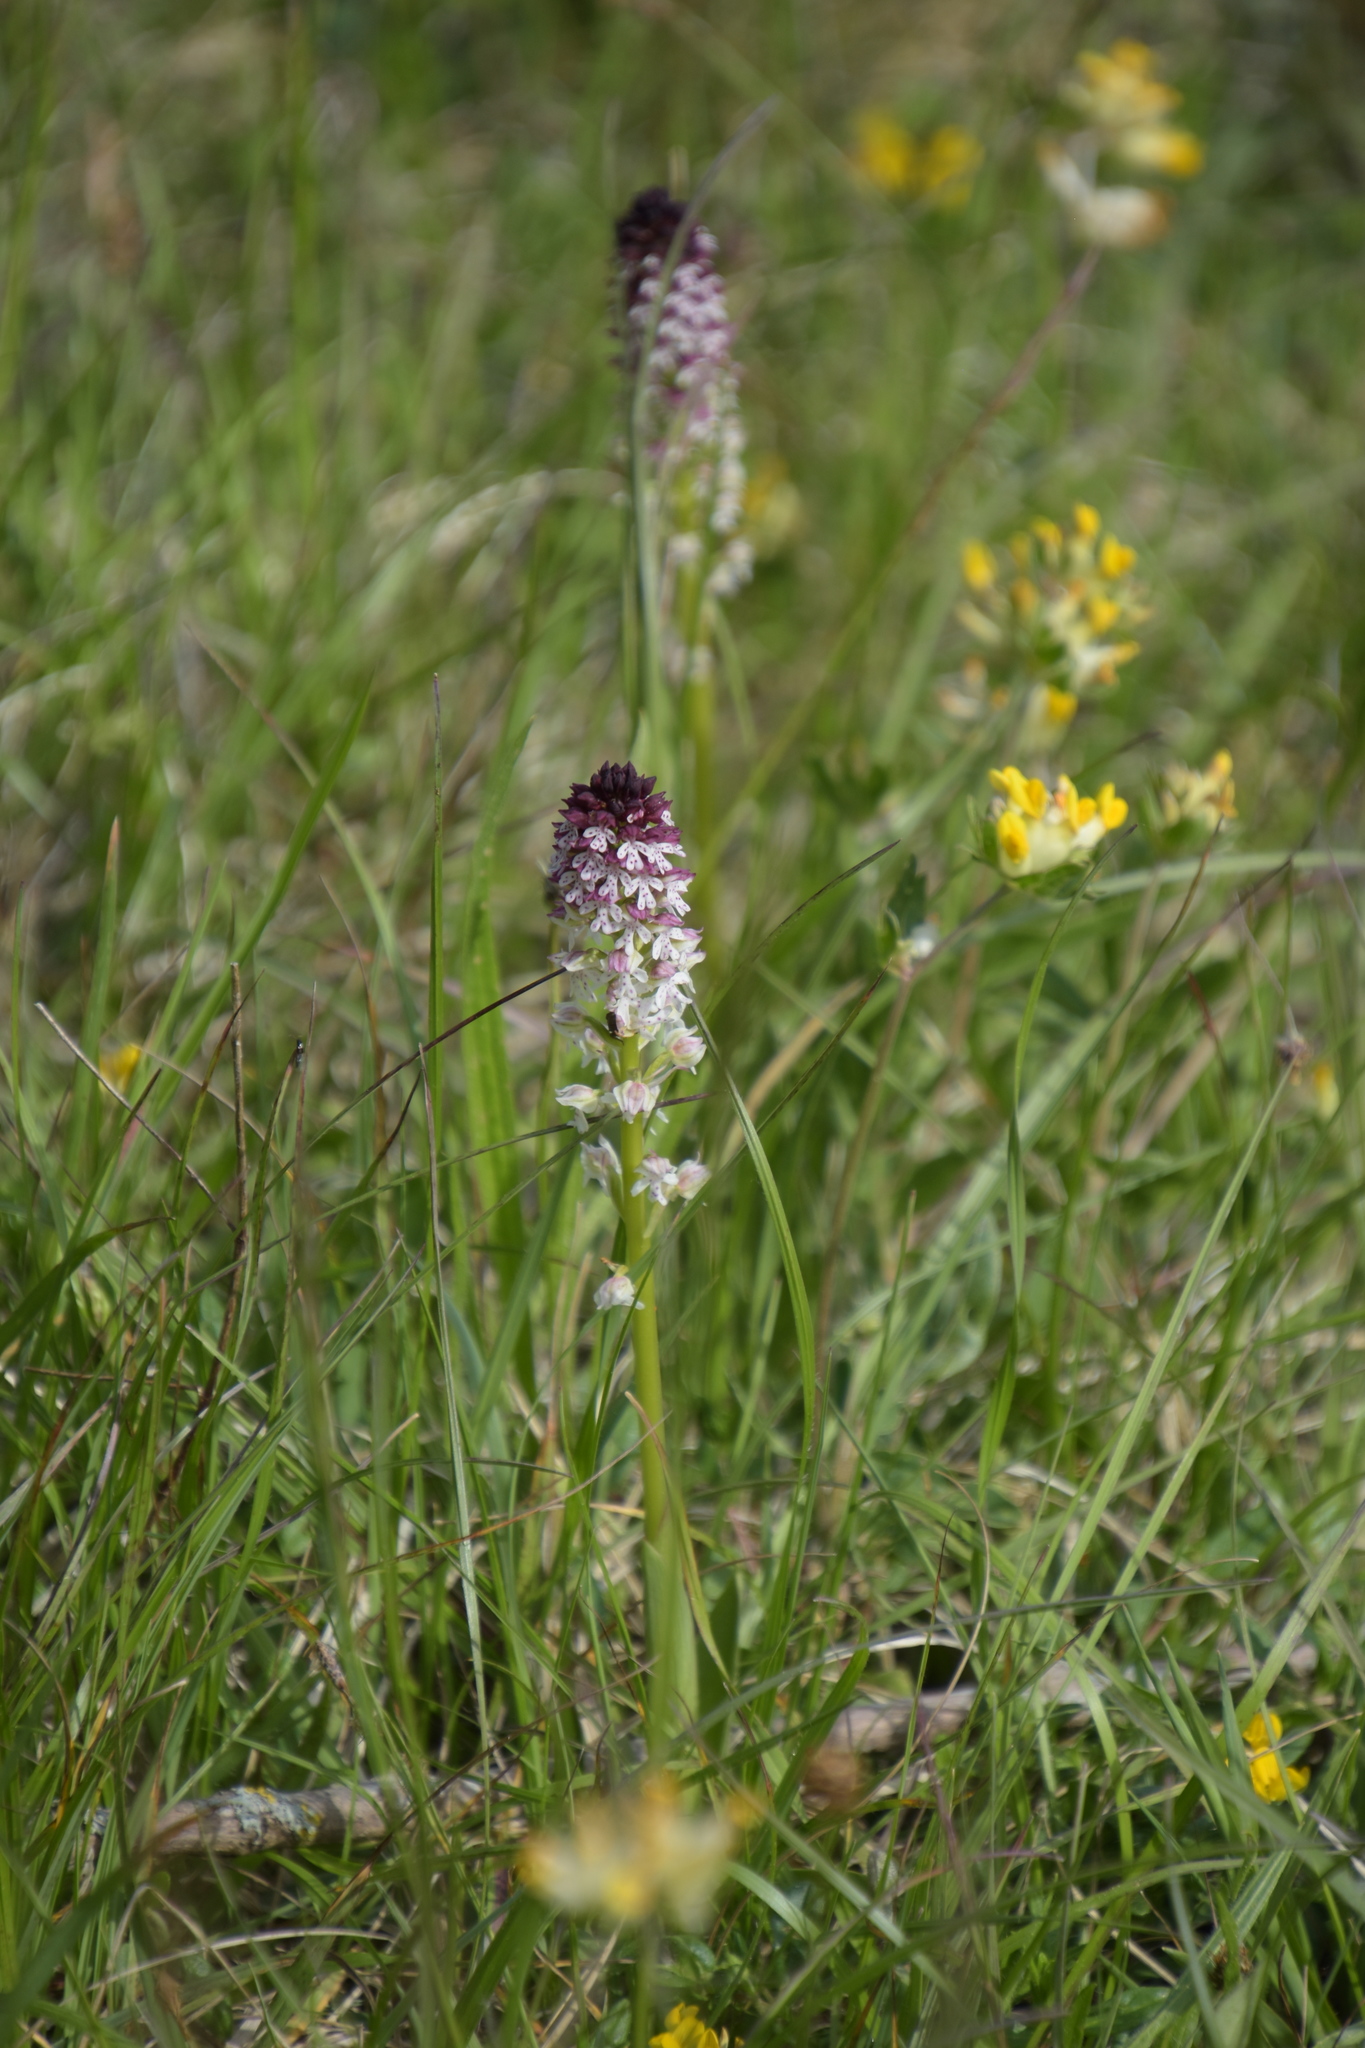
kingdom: Plantae
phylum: Tracheophyta
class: Liliopsida
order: Asparagales
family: Orchidaceae
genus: Neotinea
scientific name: Neotinea ustulata
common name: Burnt orchid
